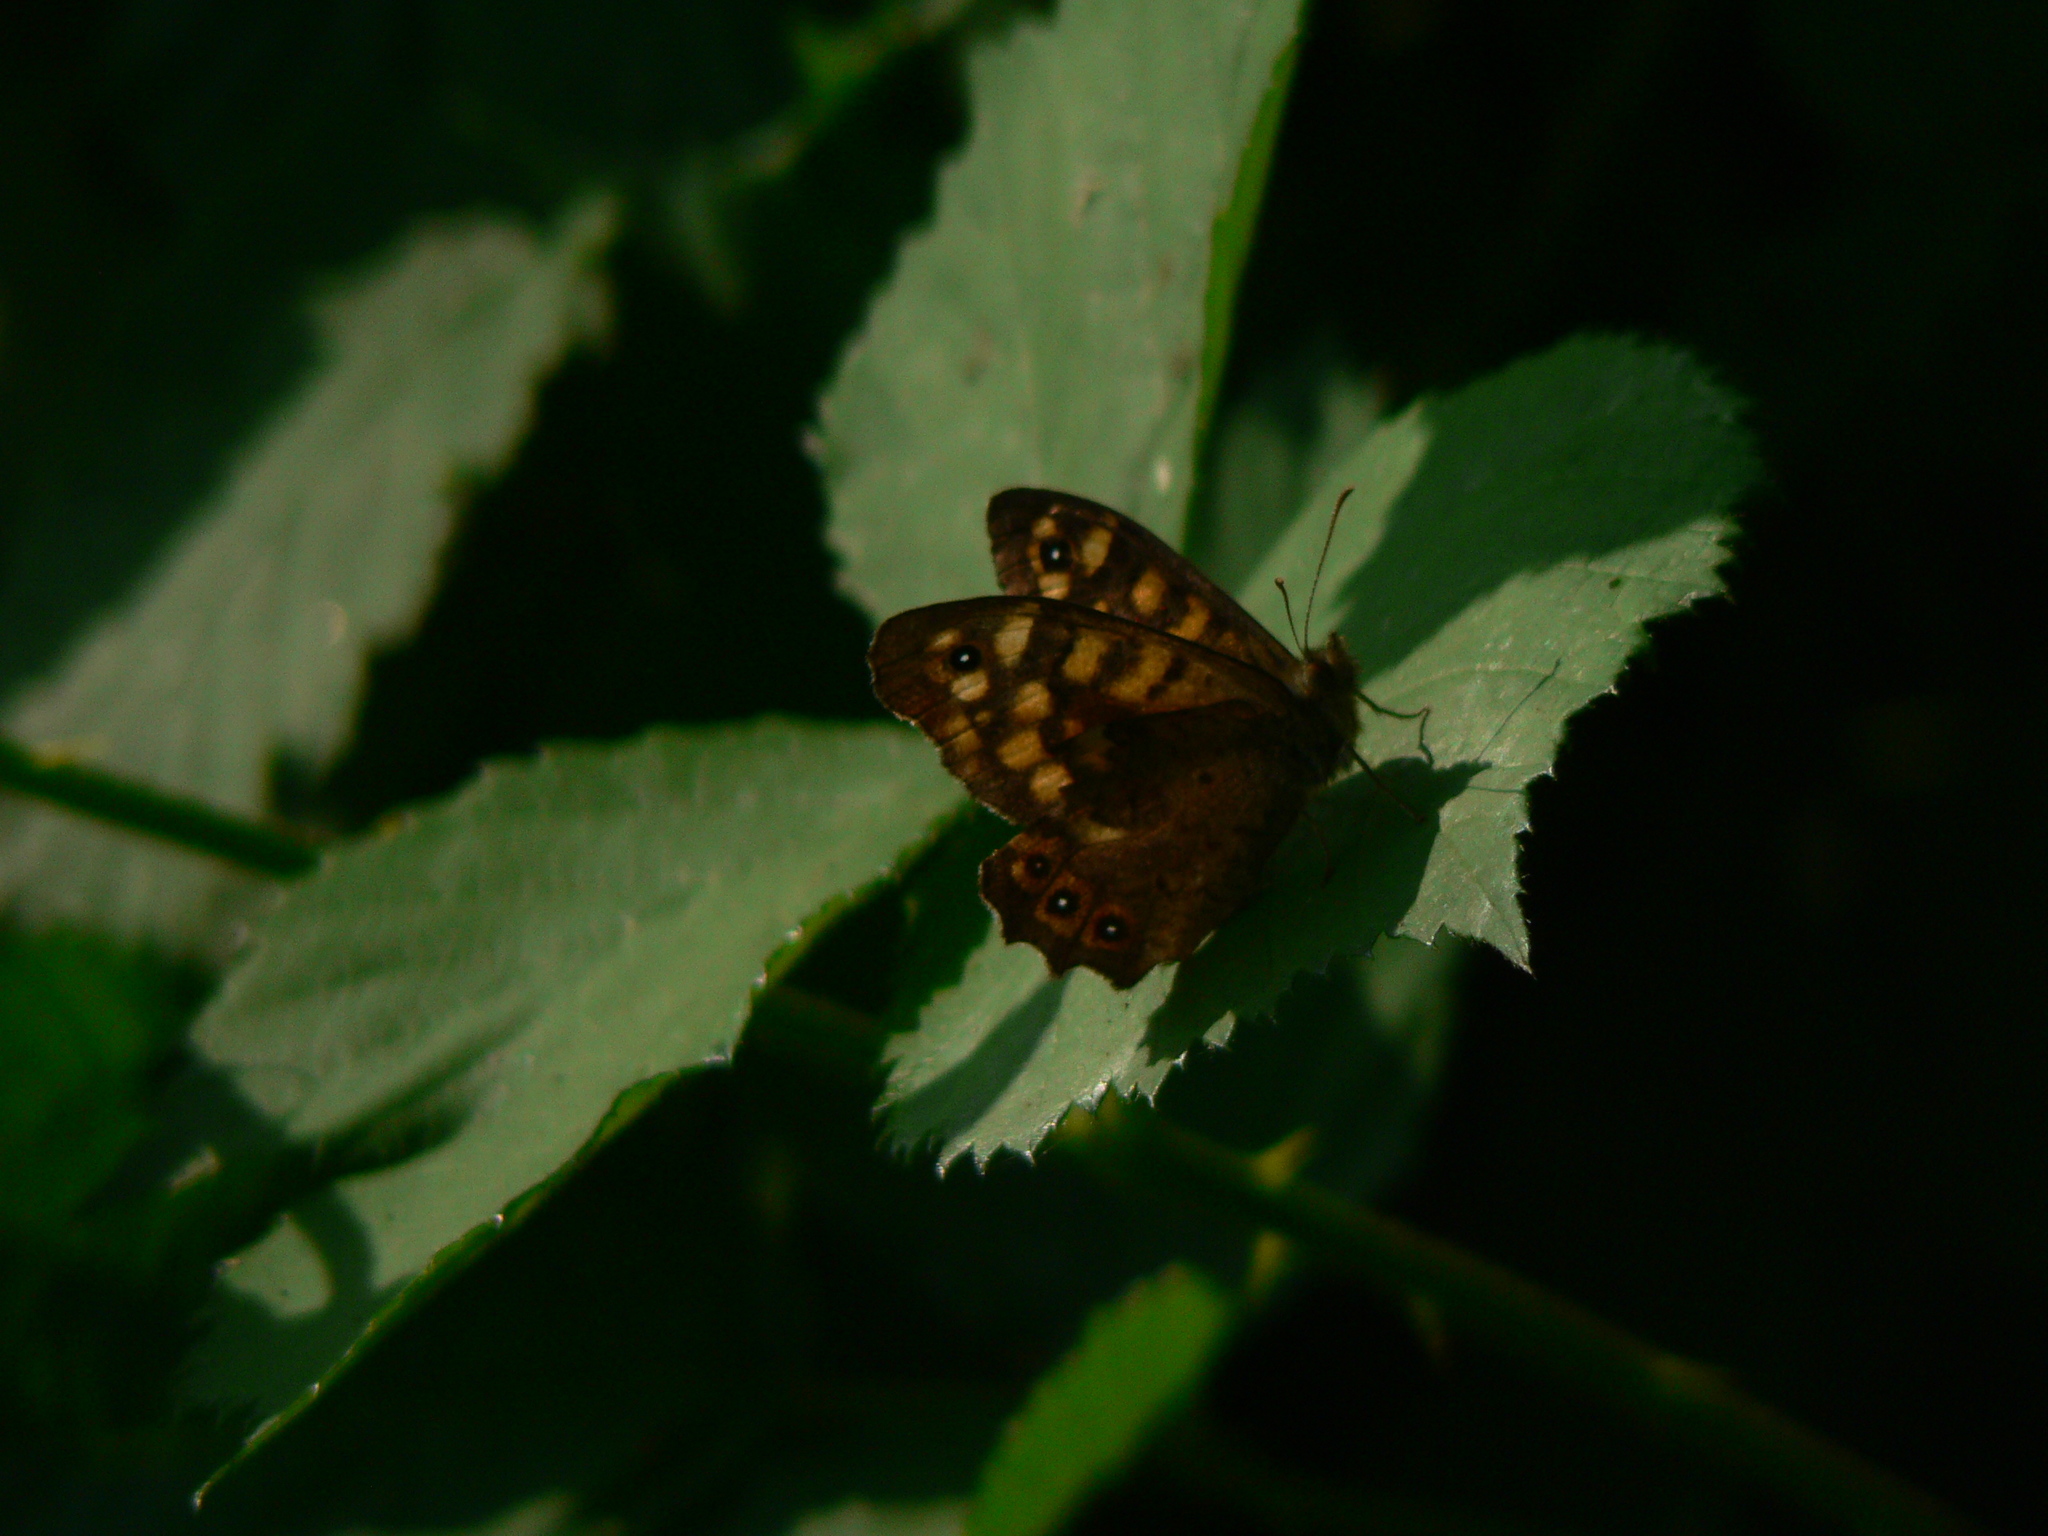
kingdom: Animalia
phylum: Arthropoda
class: Insecta
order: Lepidoptera
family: Nymphalidae
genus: Pararge
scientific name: Pararge aegeria
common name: Speckled wood
